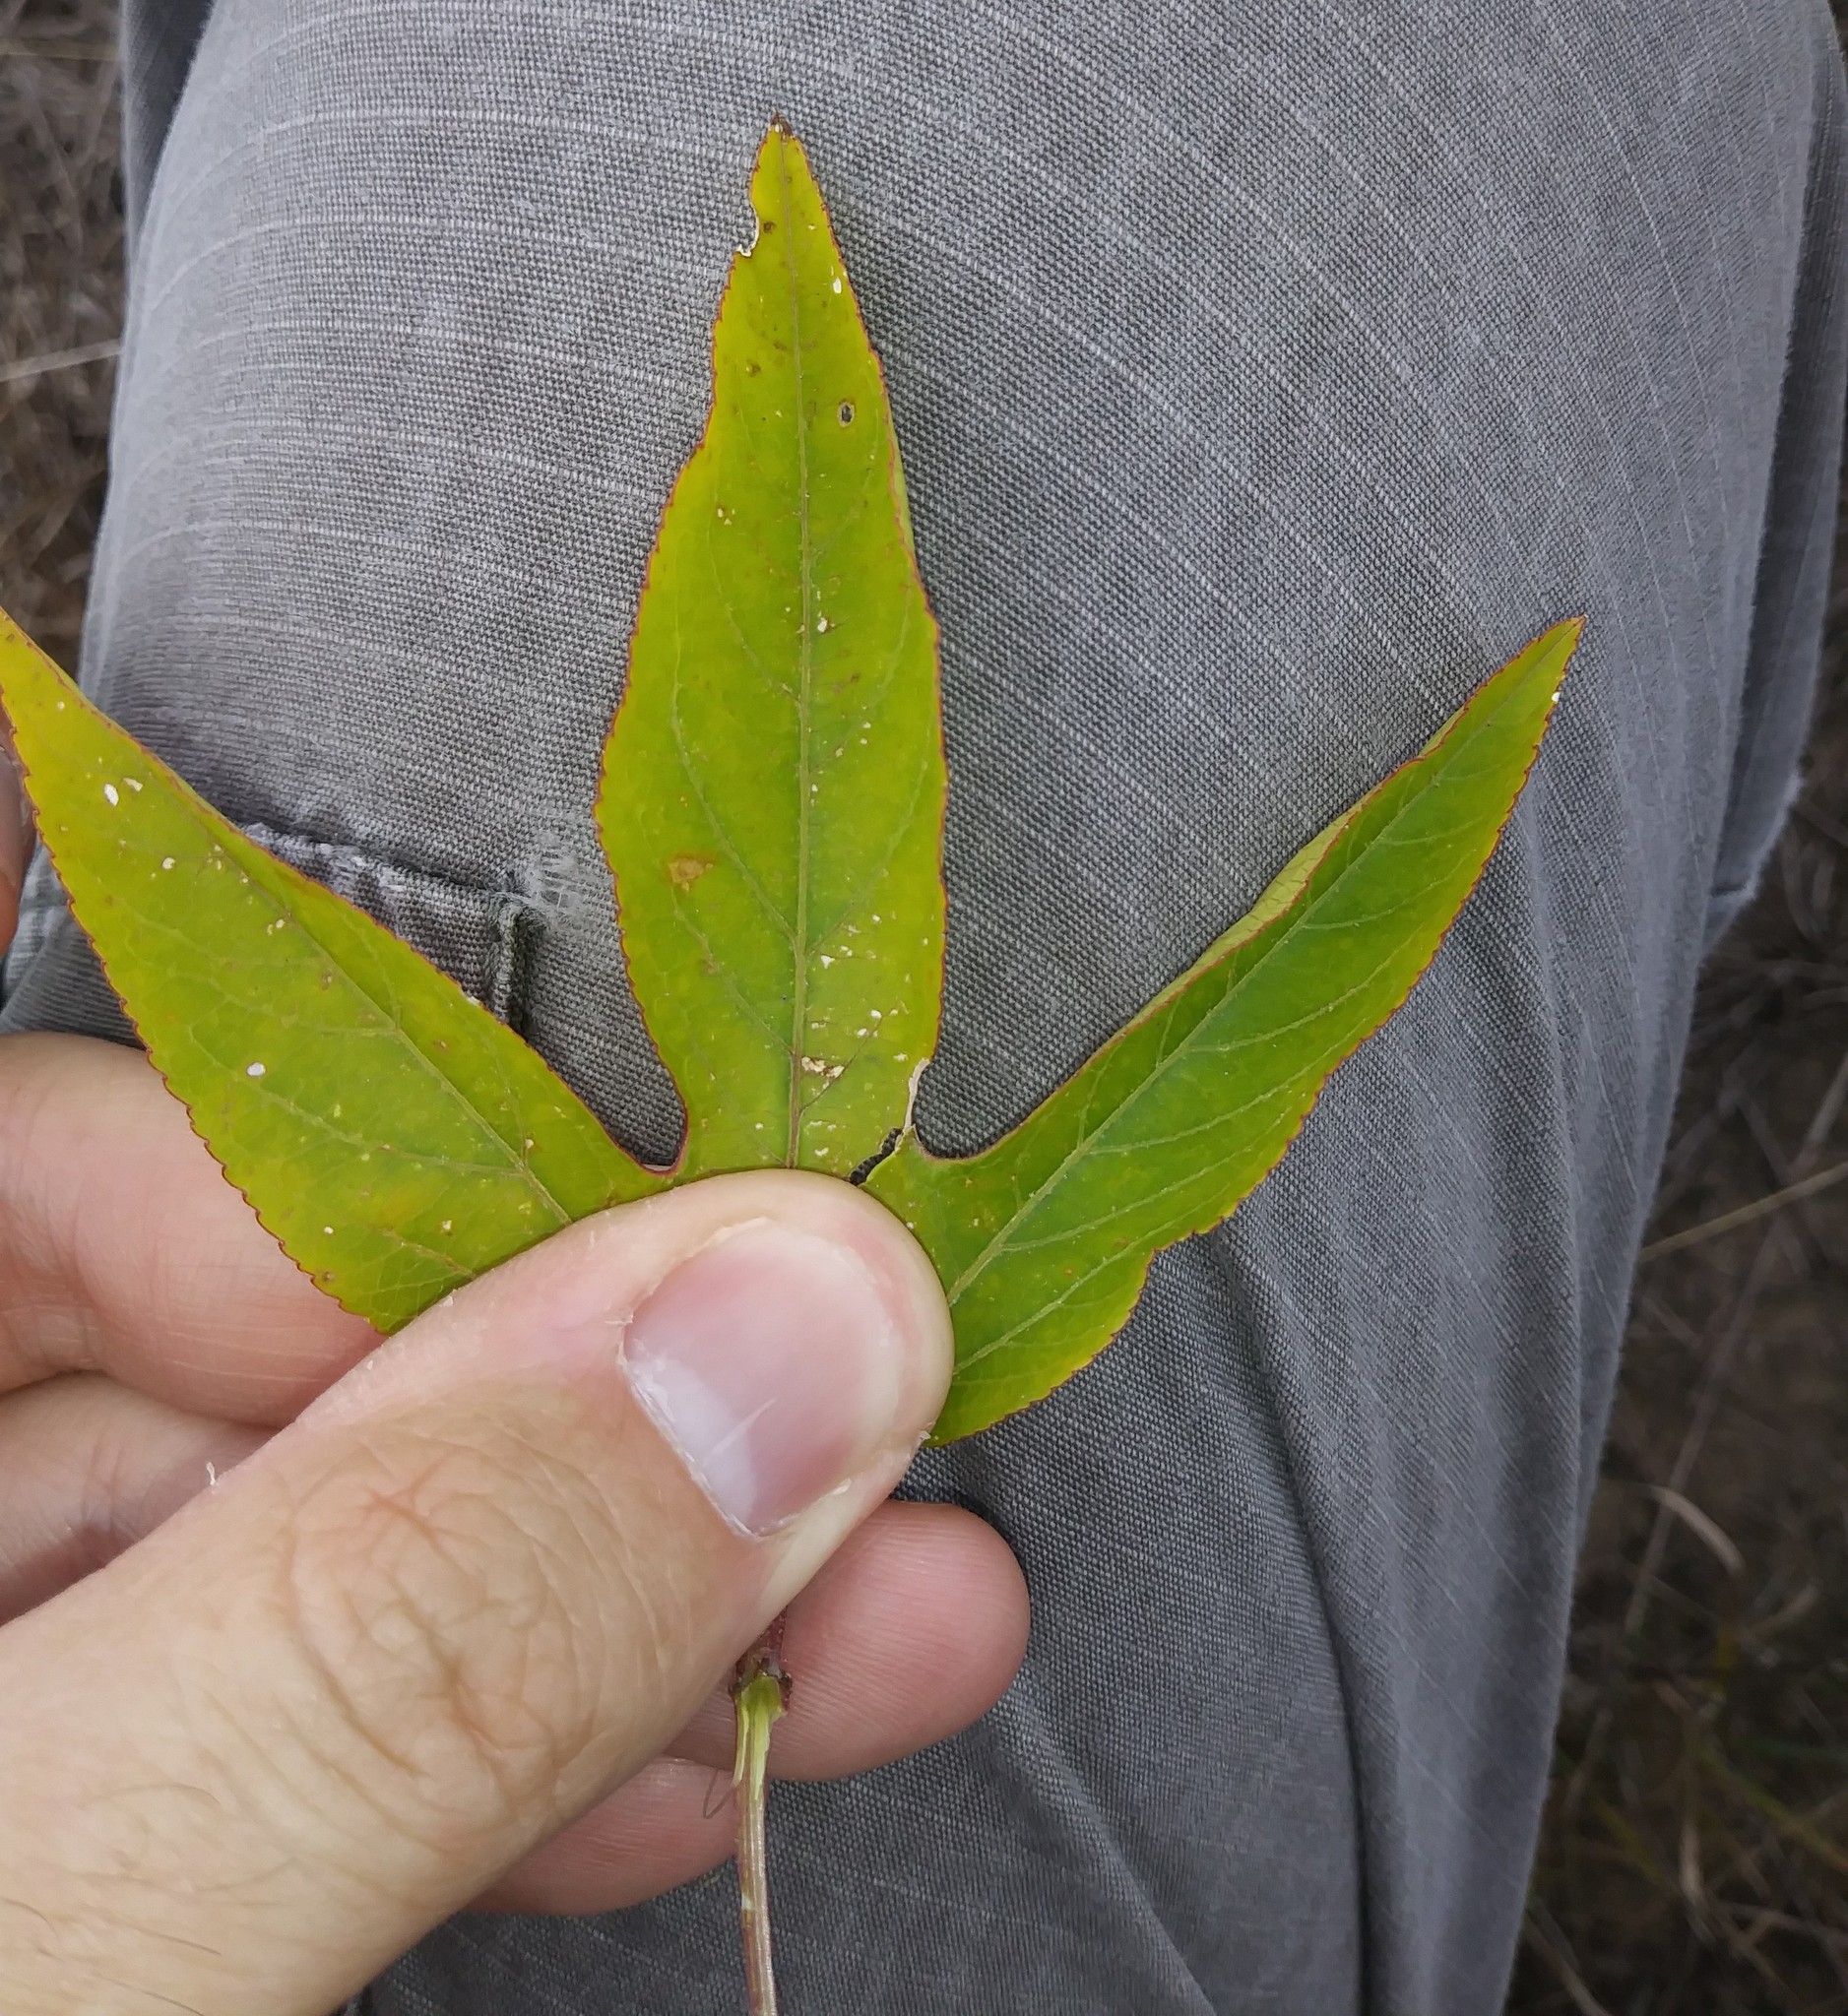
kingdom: Plantae
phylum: Tracheophyta
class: Magnoliopsida
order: Malpighiales
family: Passifloraceae
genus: Passiflora
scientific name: Passiflora incarnata
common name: Apricot-vine
